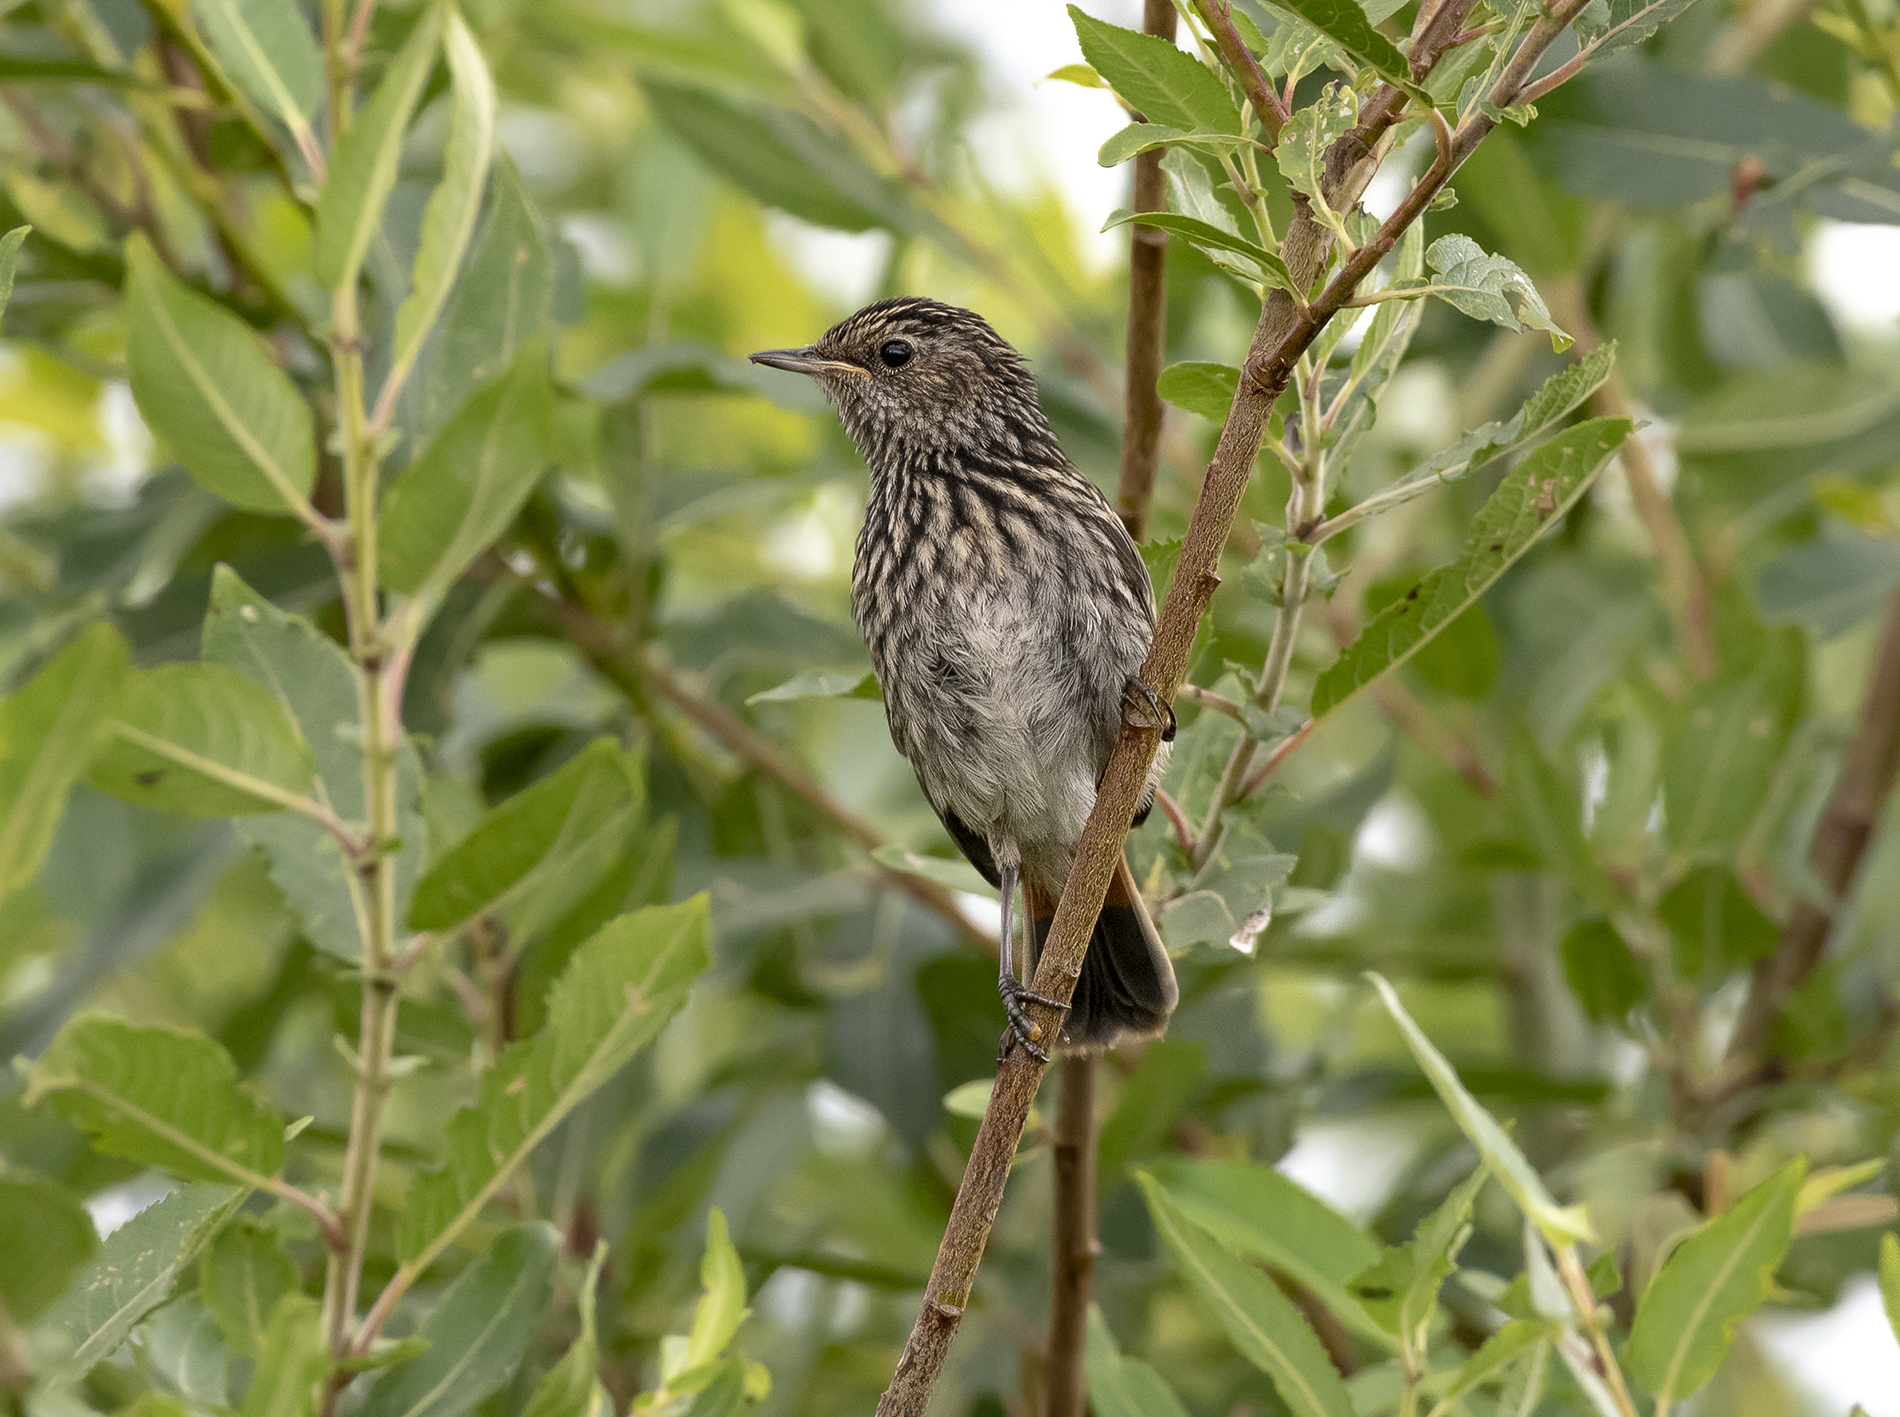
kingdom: Animalia
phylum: Chordata
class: Aves
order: Passeriformes
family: Muscicapidae
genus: Luscinia
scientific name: Luscinia svecica
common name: Bluethroat
